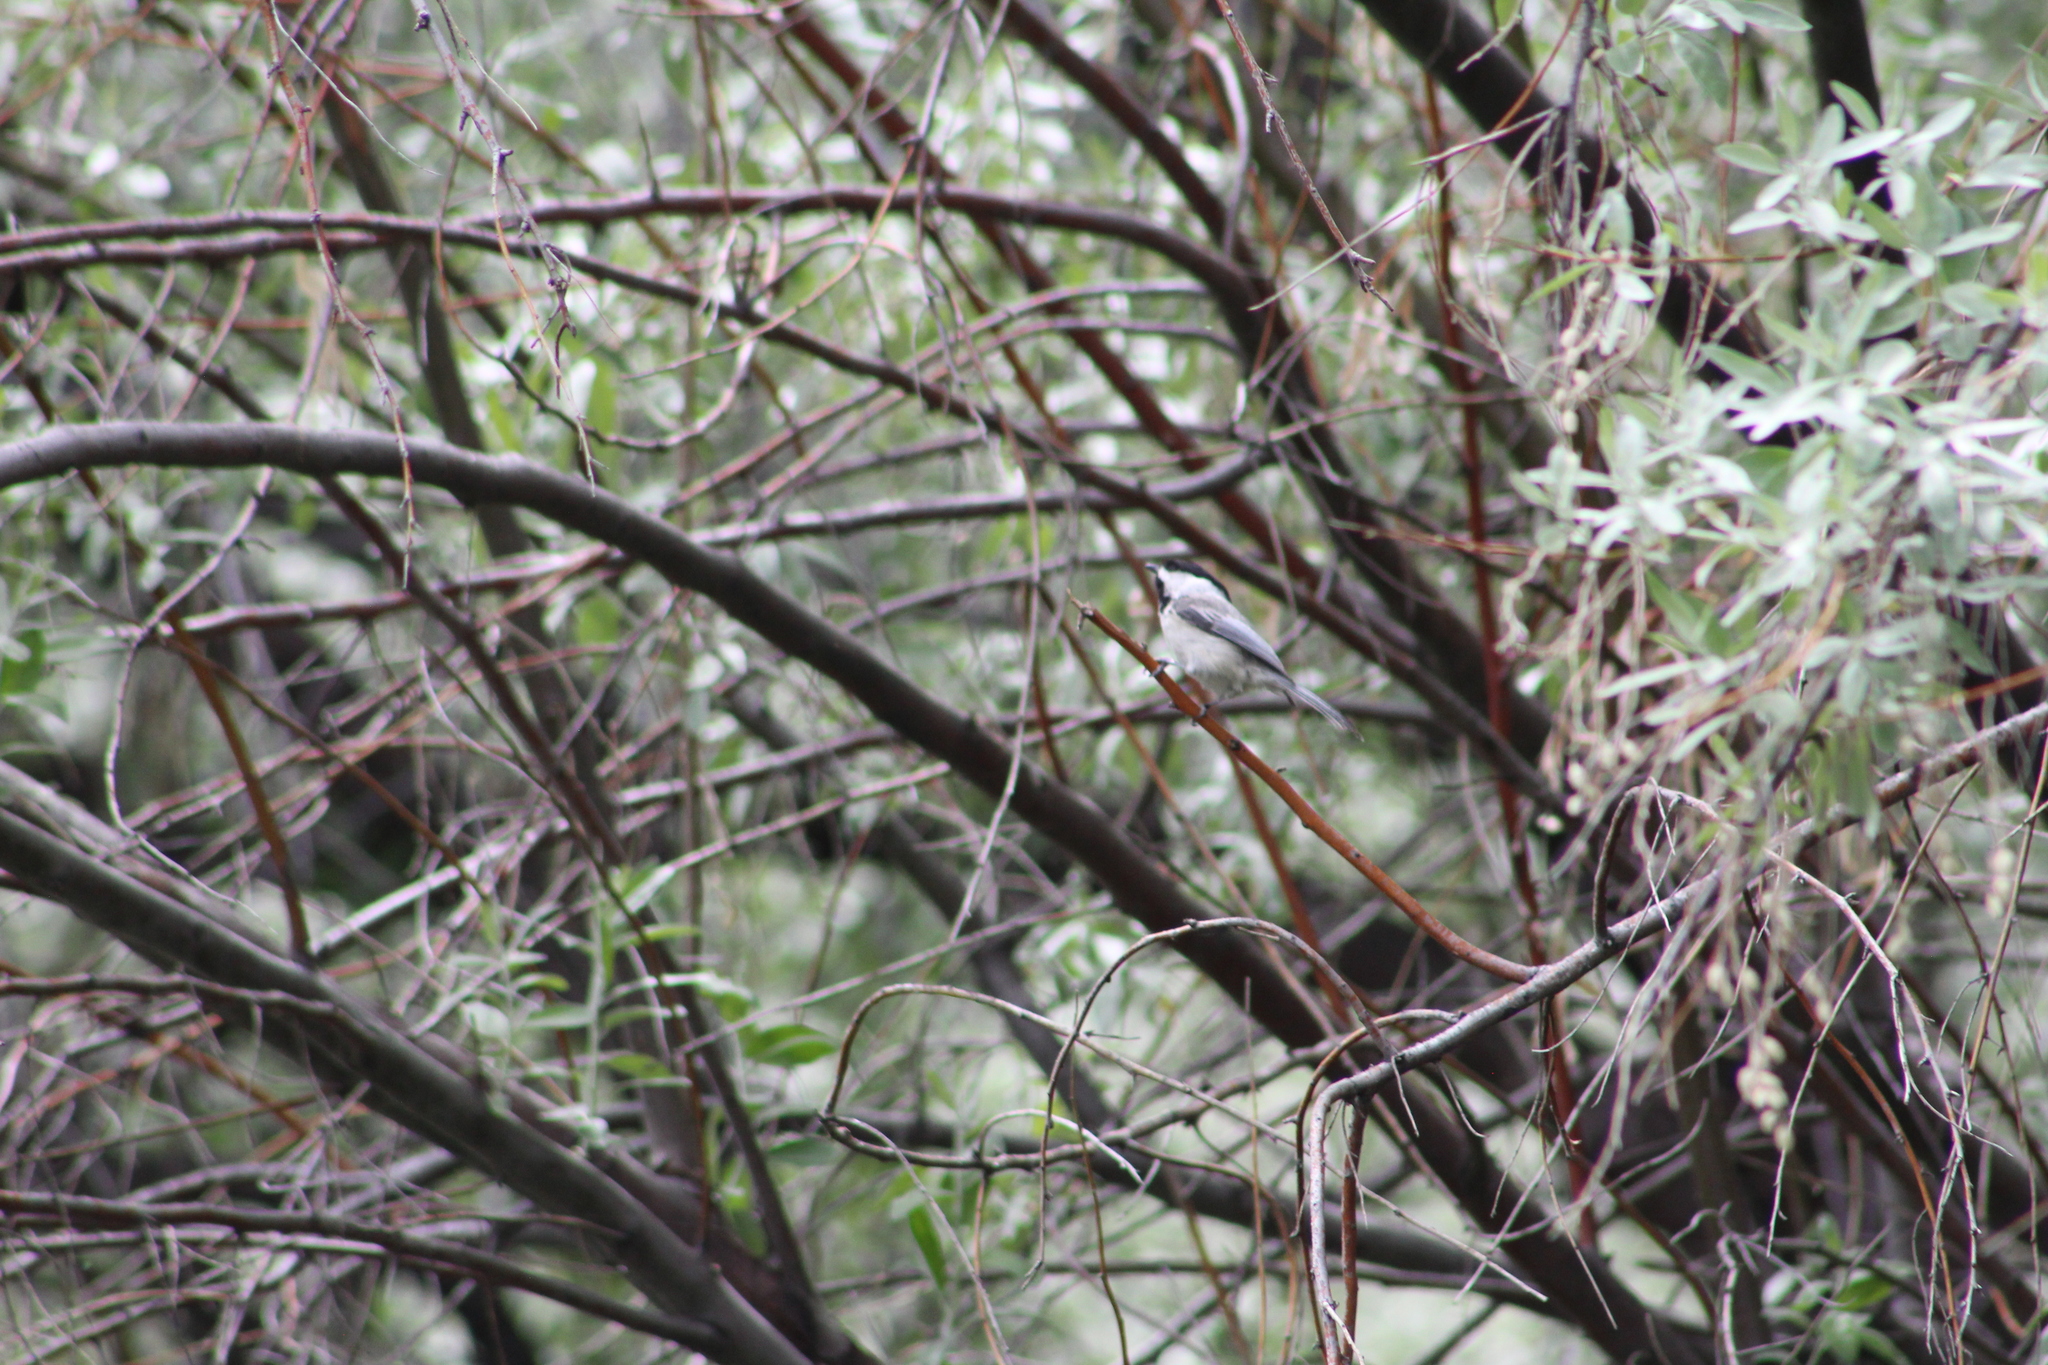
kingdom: Animalia
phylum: Chordata
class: Aves
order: Passeriformes
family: Paridae
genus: Poecile
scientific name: Poecile atricapillus
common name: Black-capped chickadee
